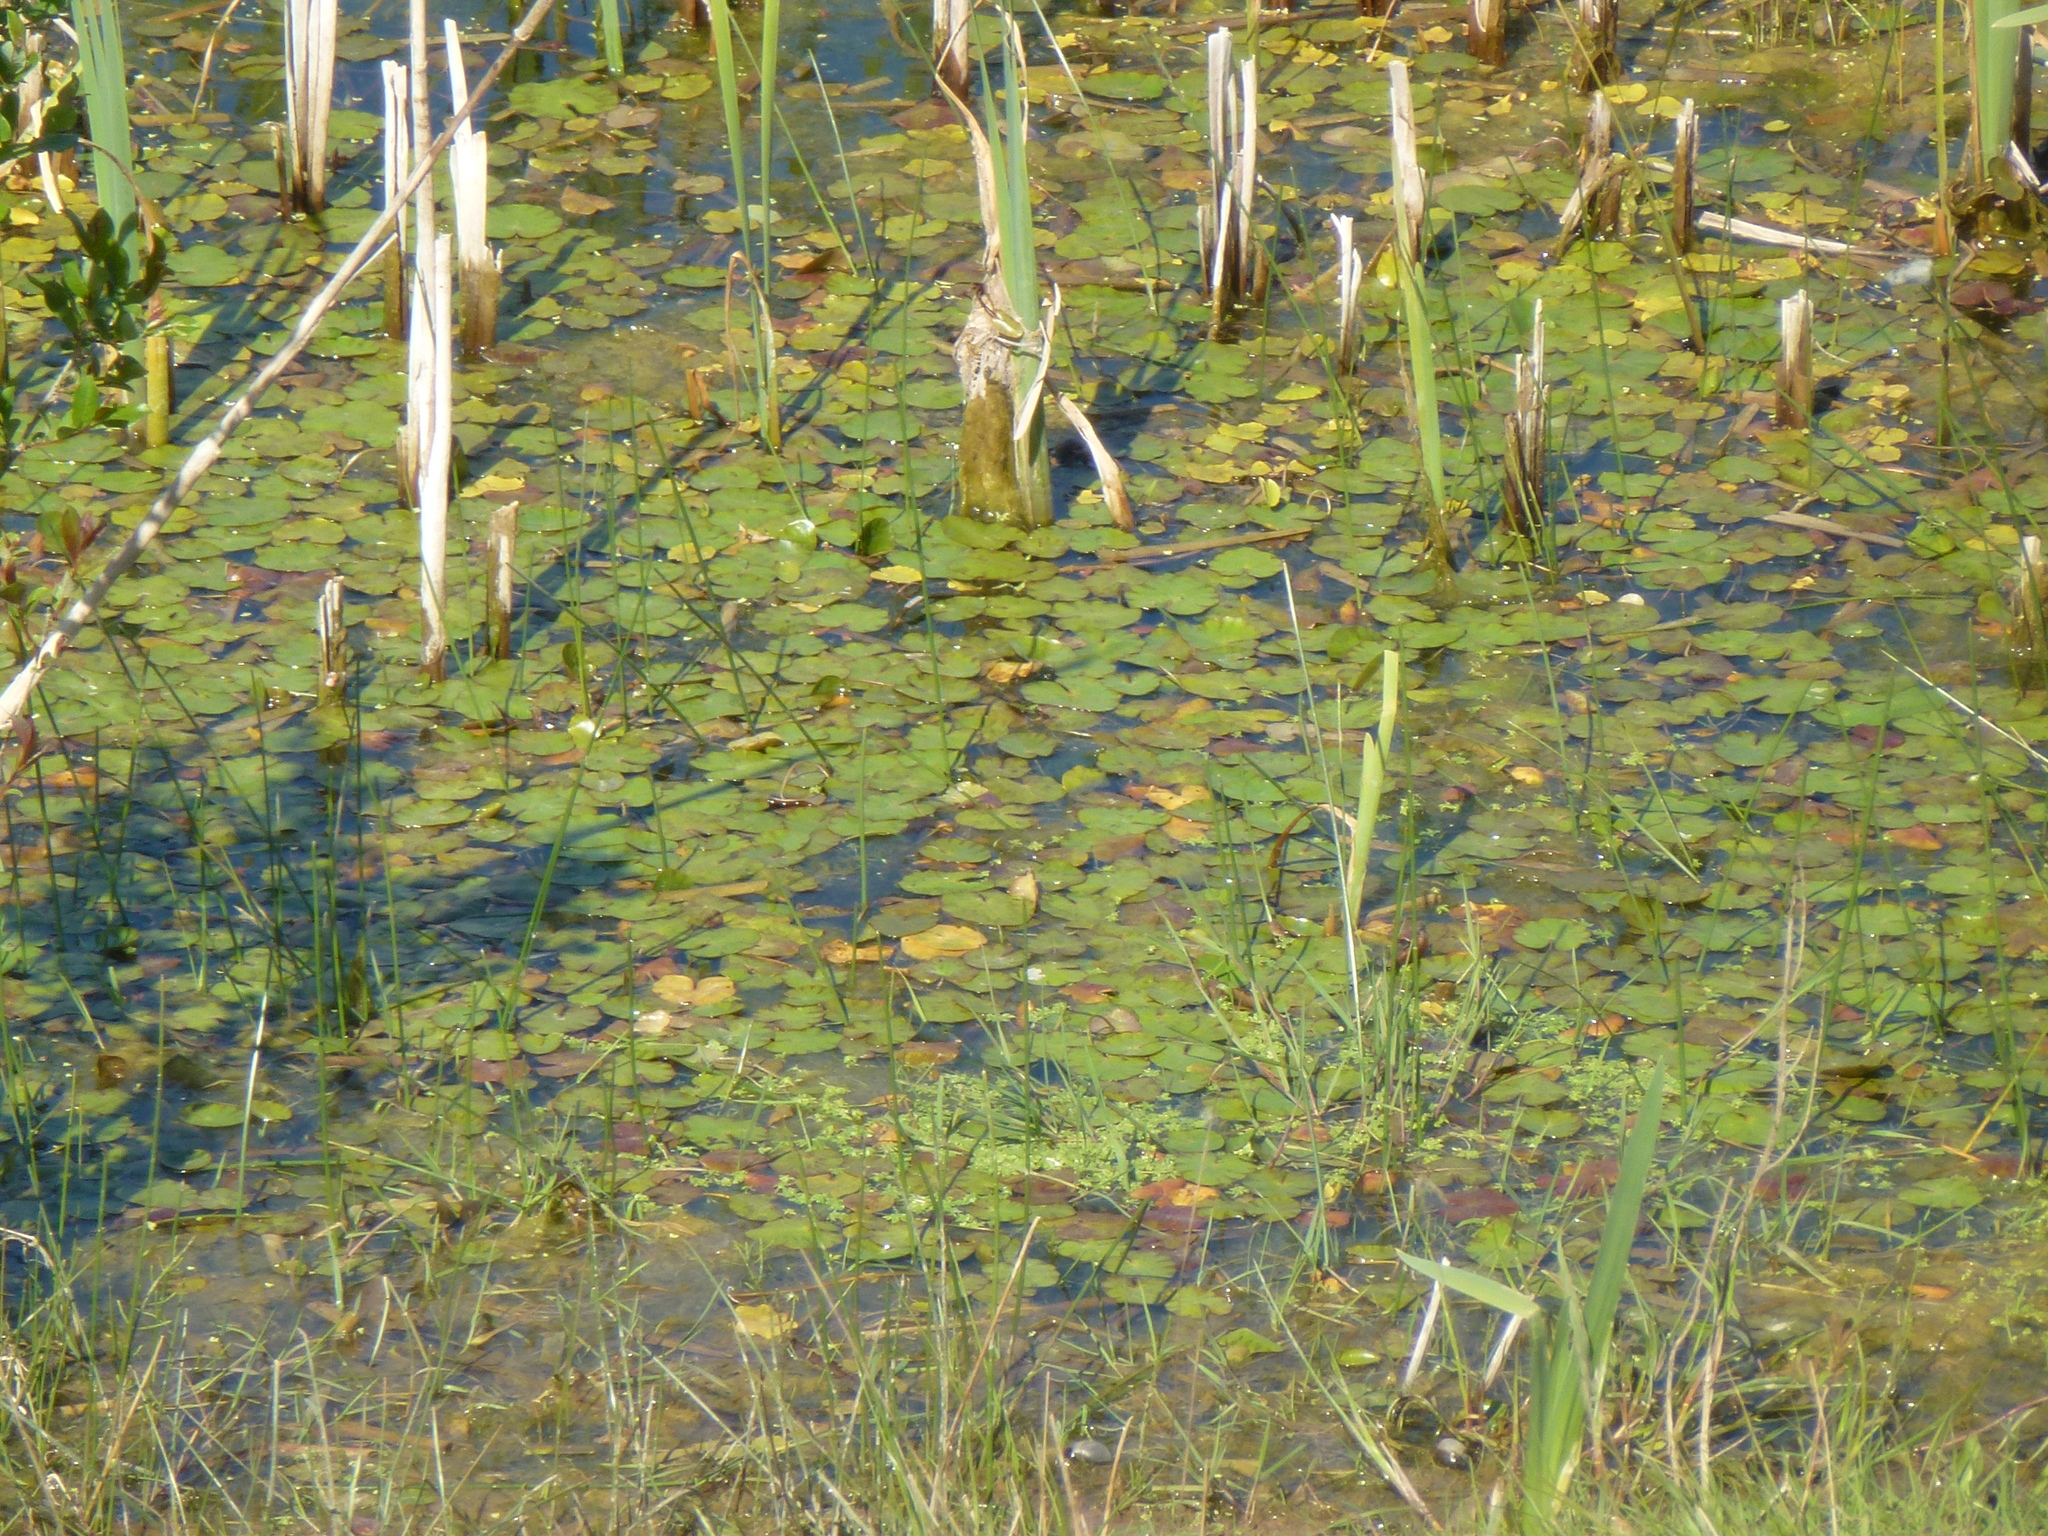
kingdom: Plantae
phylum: Tracheophyta
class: Magnoliopsida
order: Asterales
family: Menyanthaceae
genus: Nymphoides
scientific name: Nymphoides peltata
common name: Fringed water-lily
